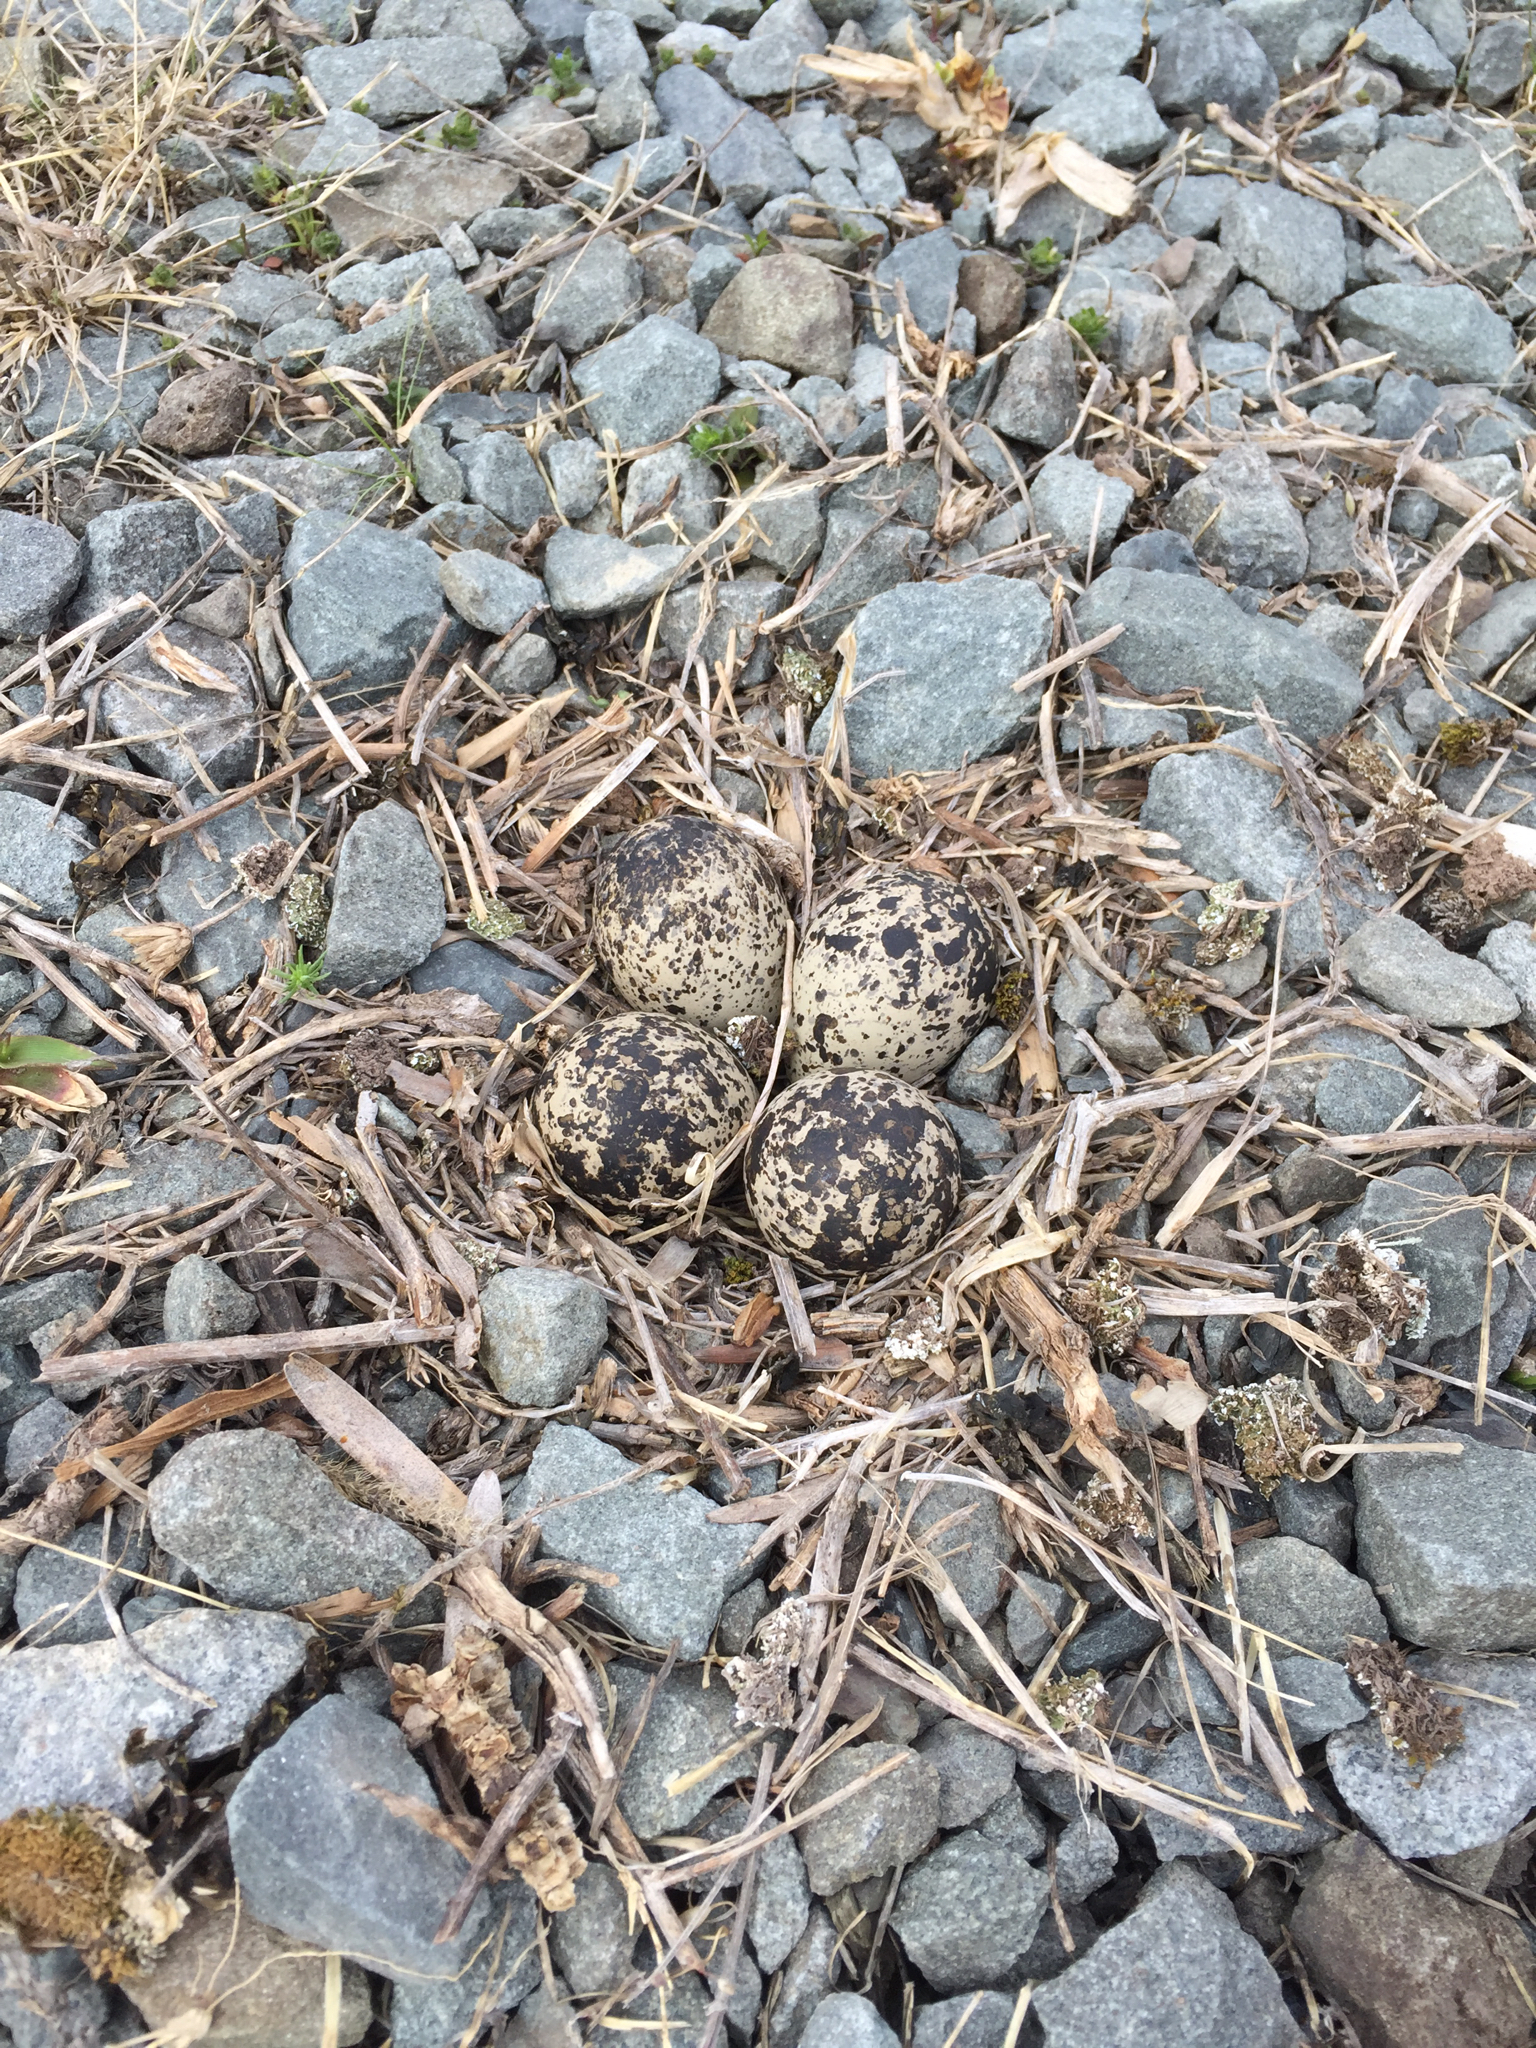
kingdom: Animalia
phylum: Chordata
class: Aves
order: Charadriiformes
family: Charadriidae
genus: Charadrius
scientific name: Charadrius vociferus
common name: Killdeer
